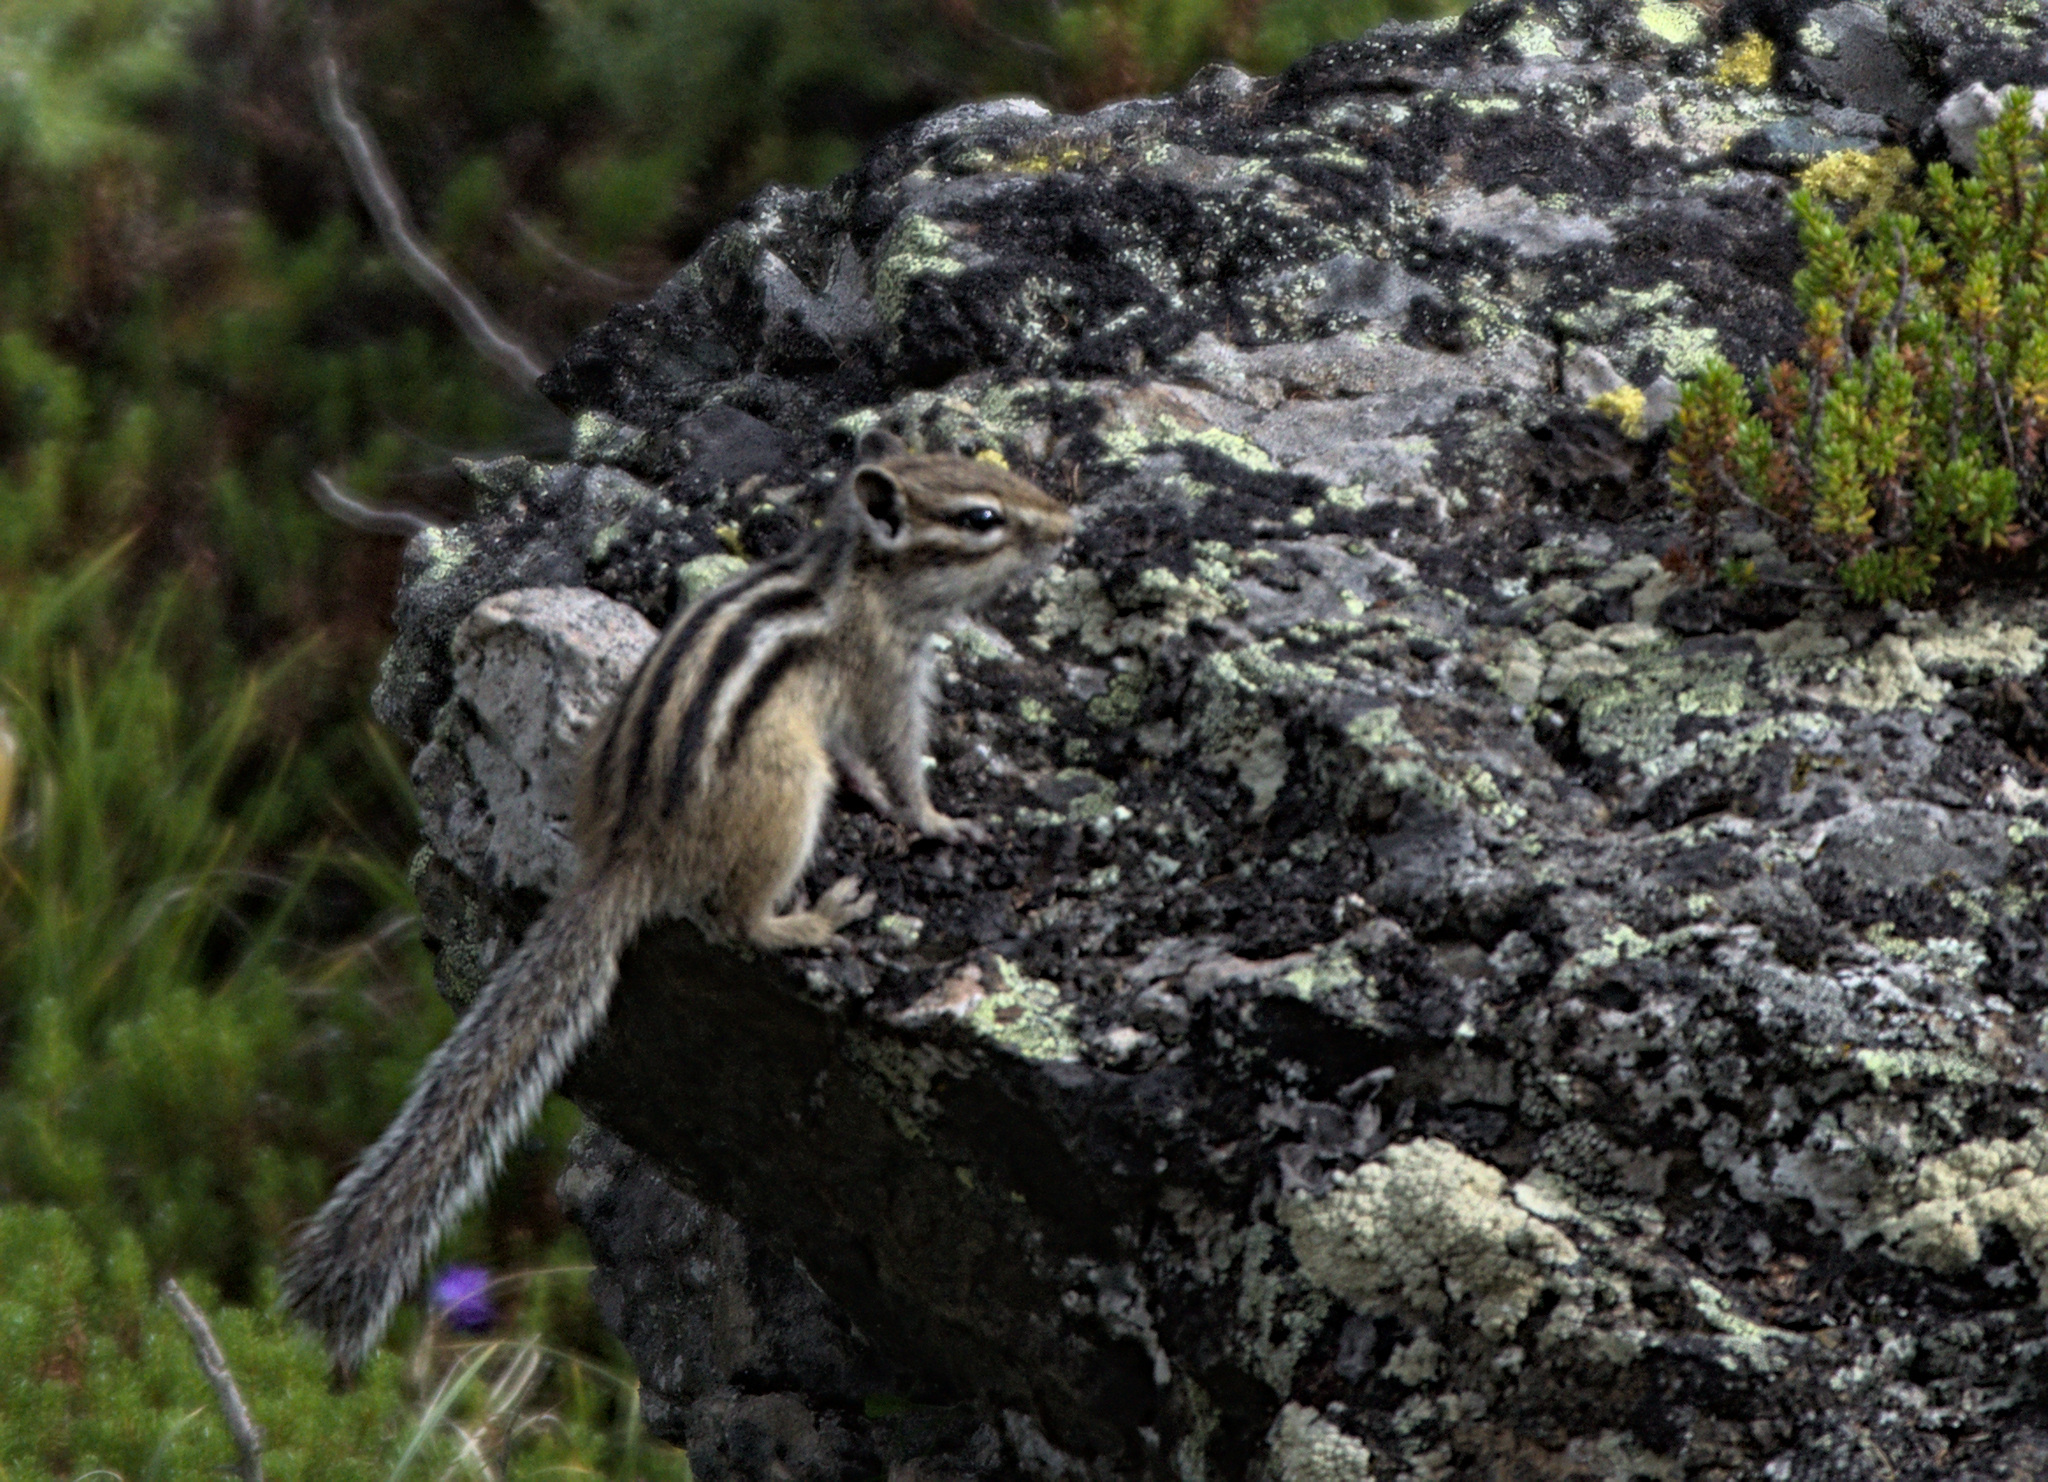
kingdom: Animalia
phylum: Chordata
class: Mammalia
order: Rodentia
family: Sciuridae
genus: Tamias
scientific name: Tamias sibiricus
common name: Siberian chipmunk
